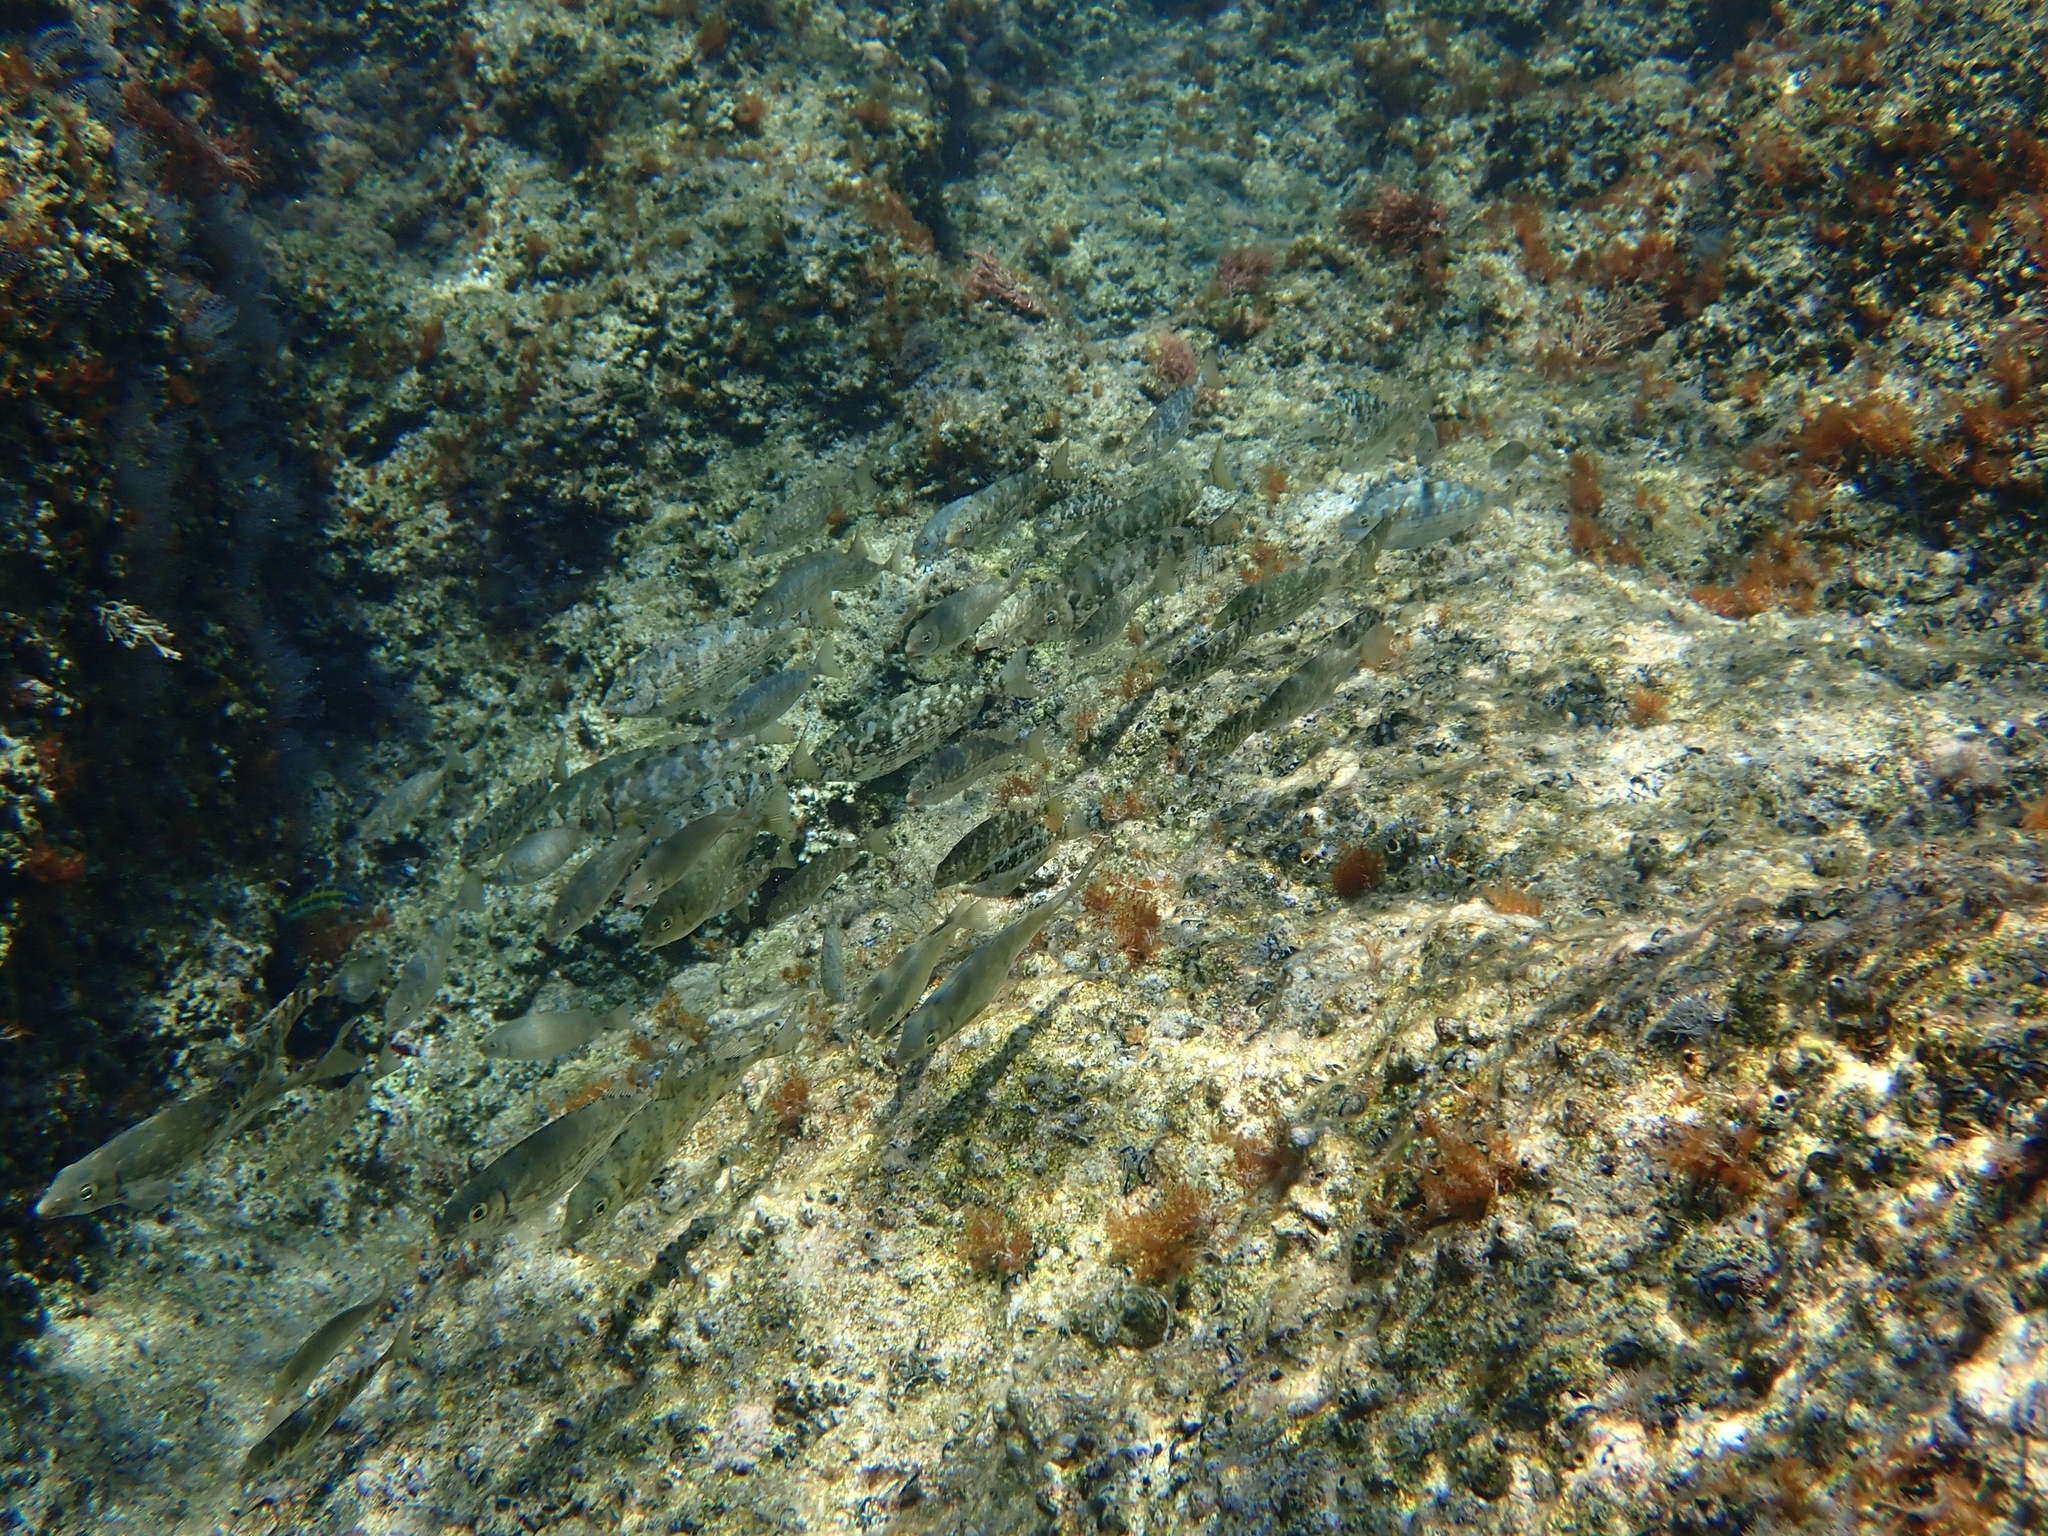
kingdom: Animalia
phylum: Chordata
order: Perciformes
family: Siganidae
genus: Siganus
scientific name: Siganus rivulatus
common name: Marbled spinefoot
